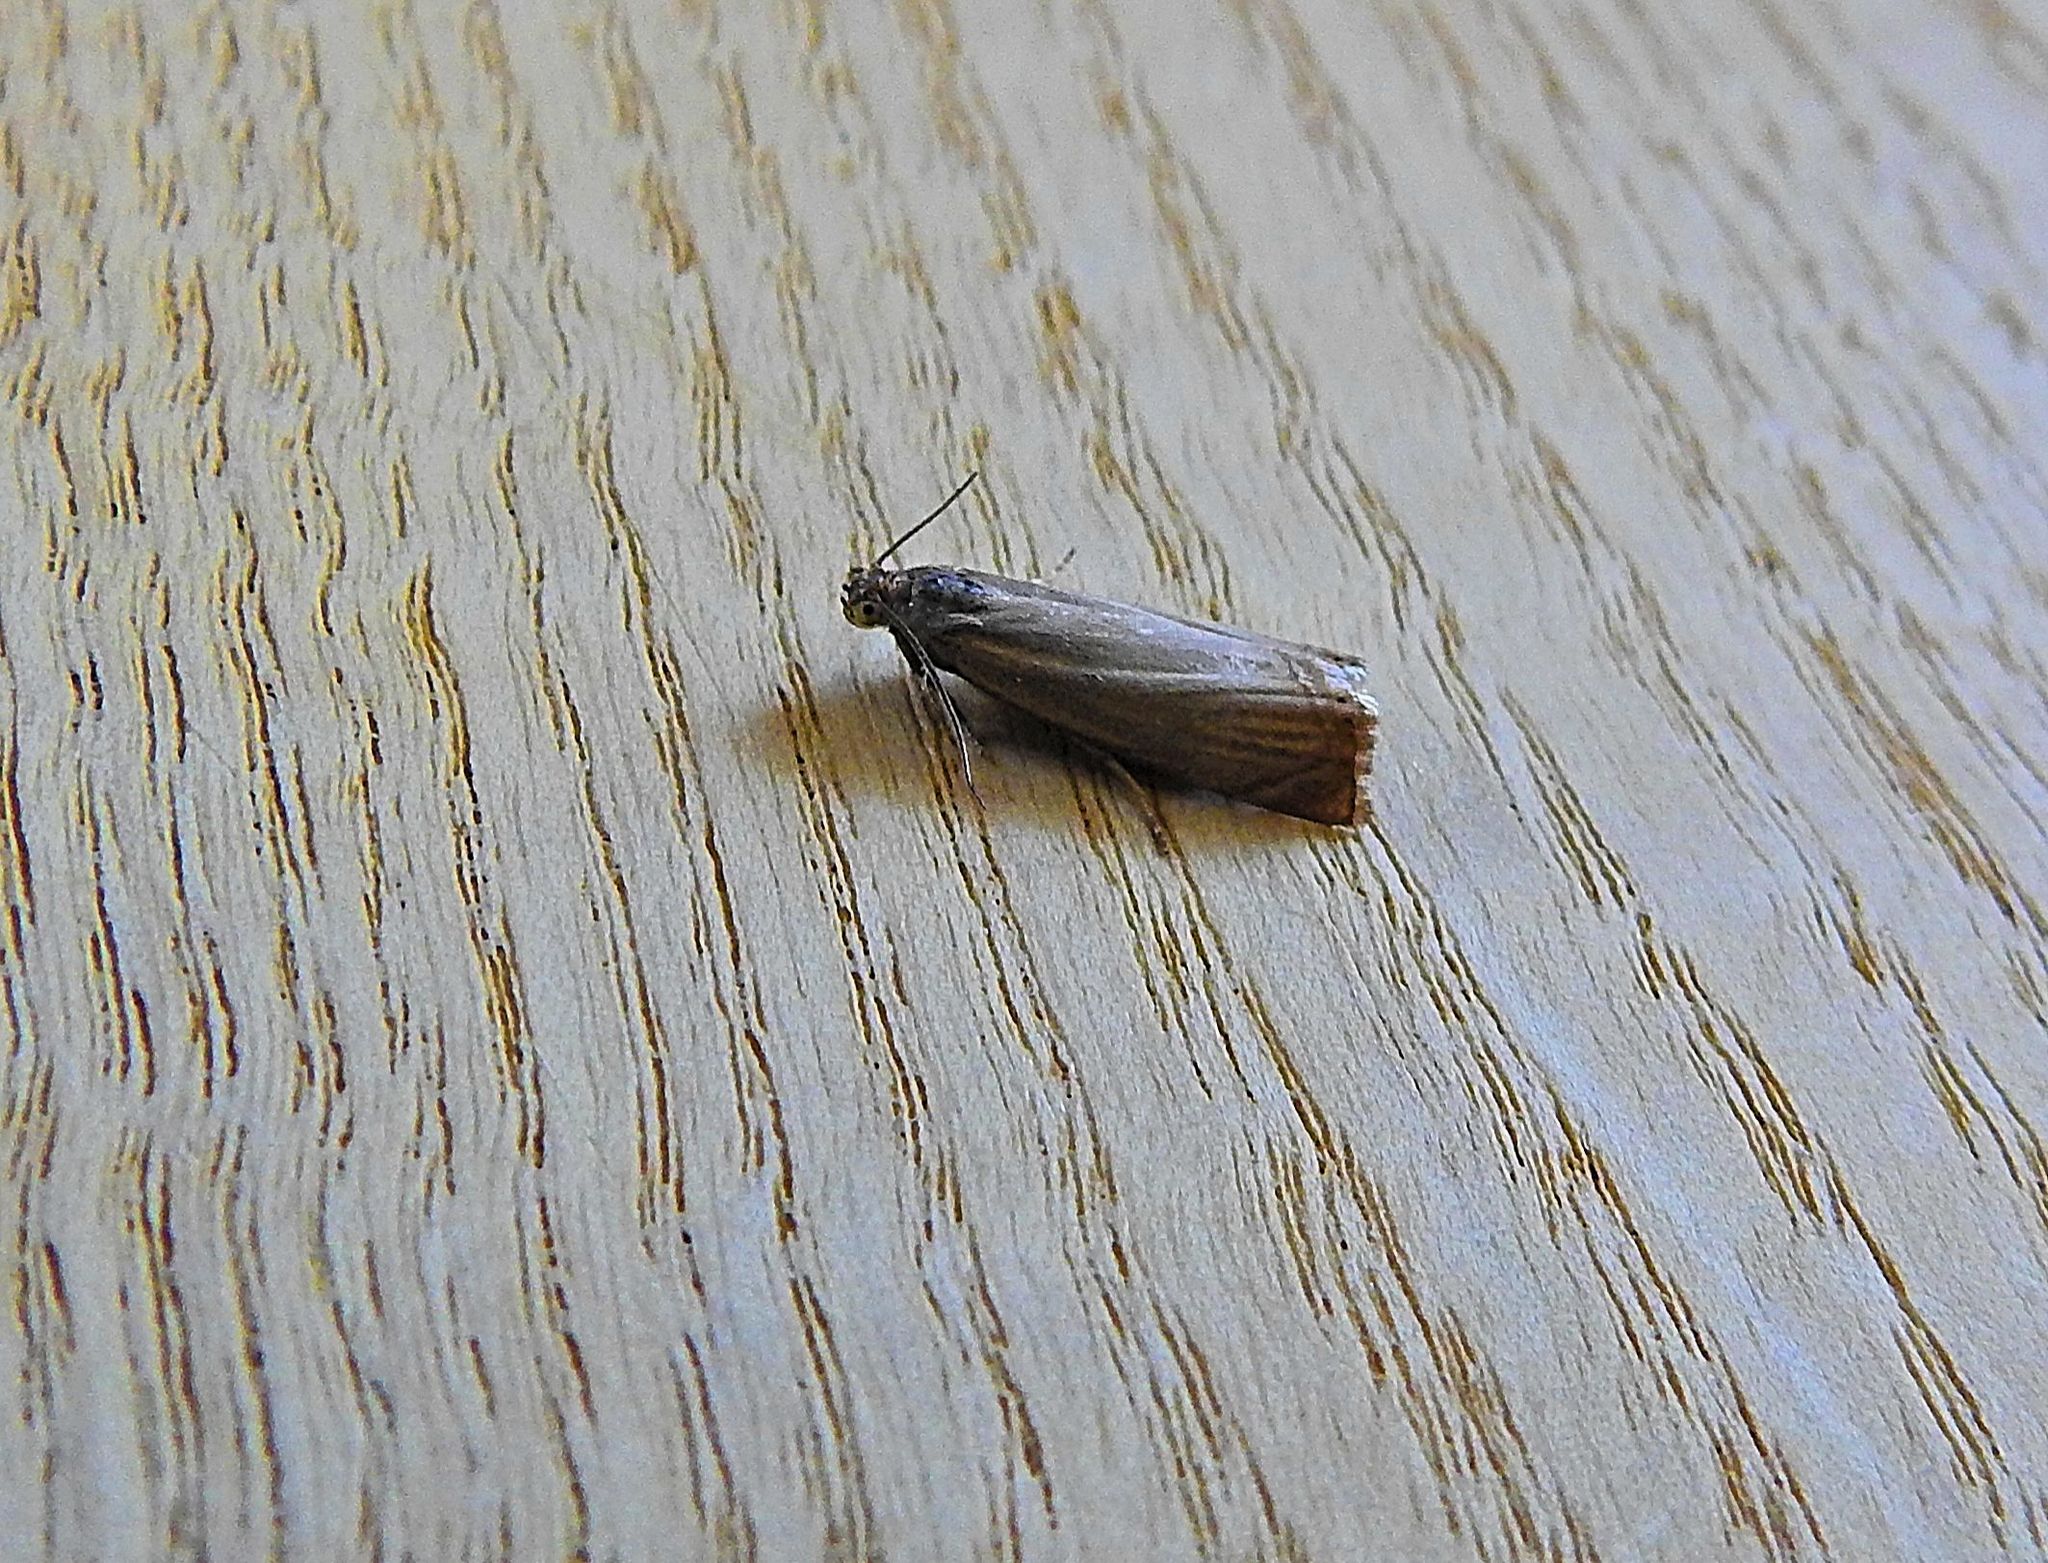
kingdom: Animalia
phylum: Arthropoda
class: Insecta
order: Lepidoptera
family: Crambidae
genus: Chrysoteuchia
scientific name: Chrysoteuchia culmella
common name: Garden grass-veneer
